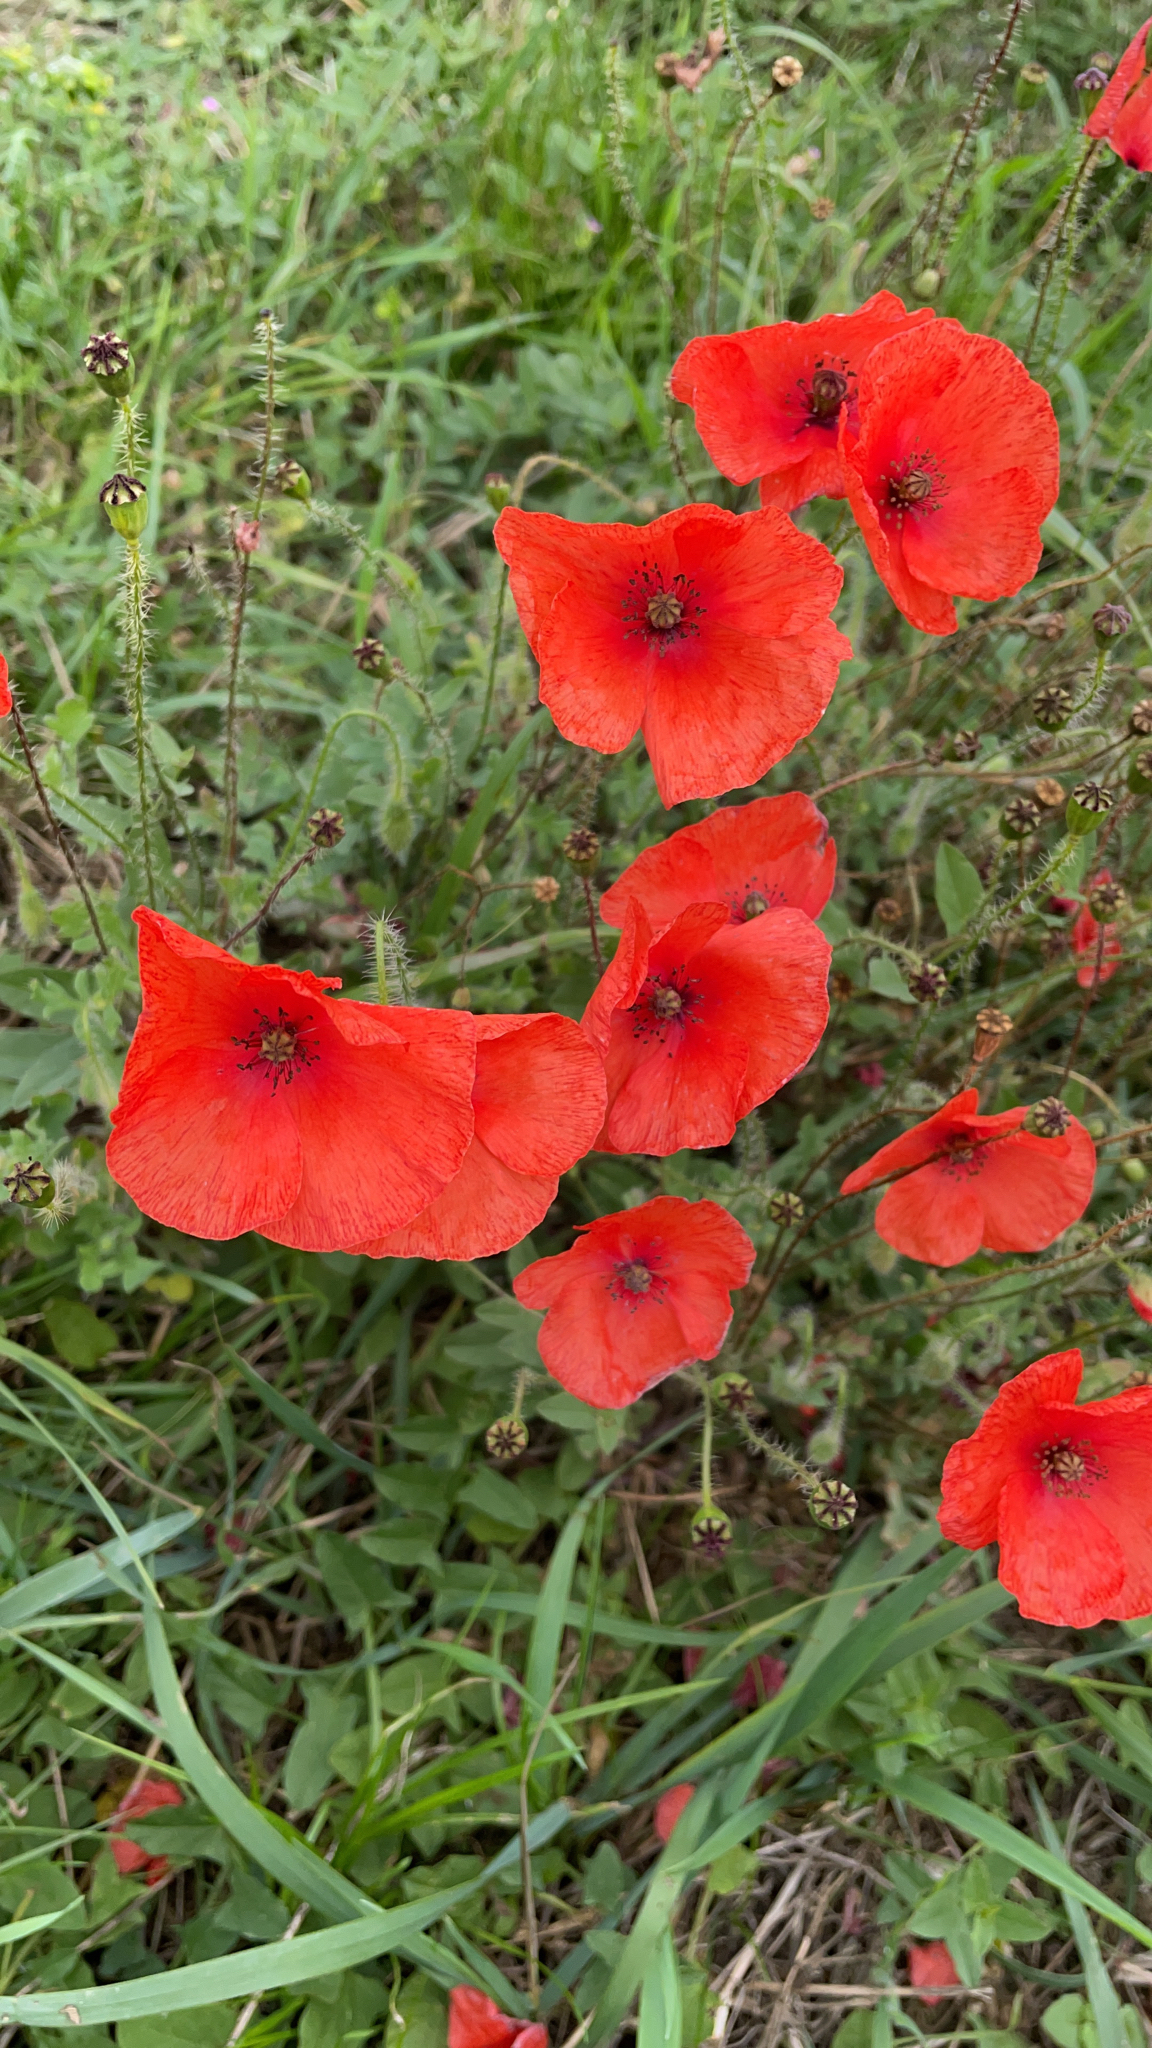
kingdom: Plantae
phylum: Tracheophyta
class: Magnoliopsida
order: Ranunculales
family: Papaveraceae
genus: Papaver
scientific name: Papaver rhoeas
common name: Corn poppy
